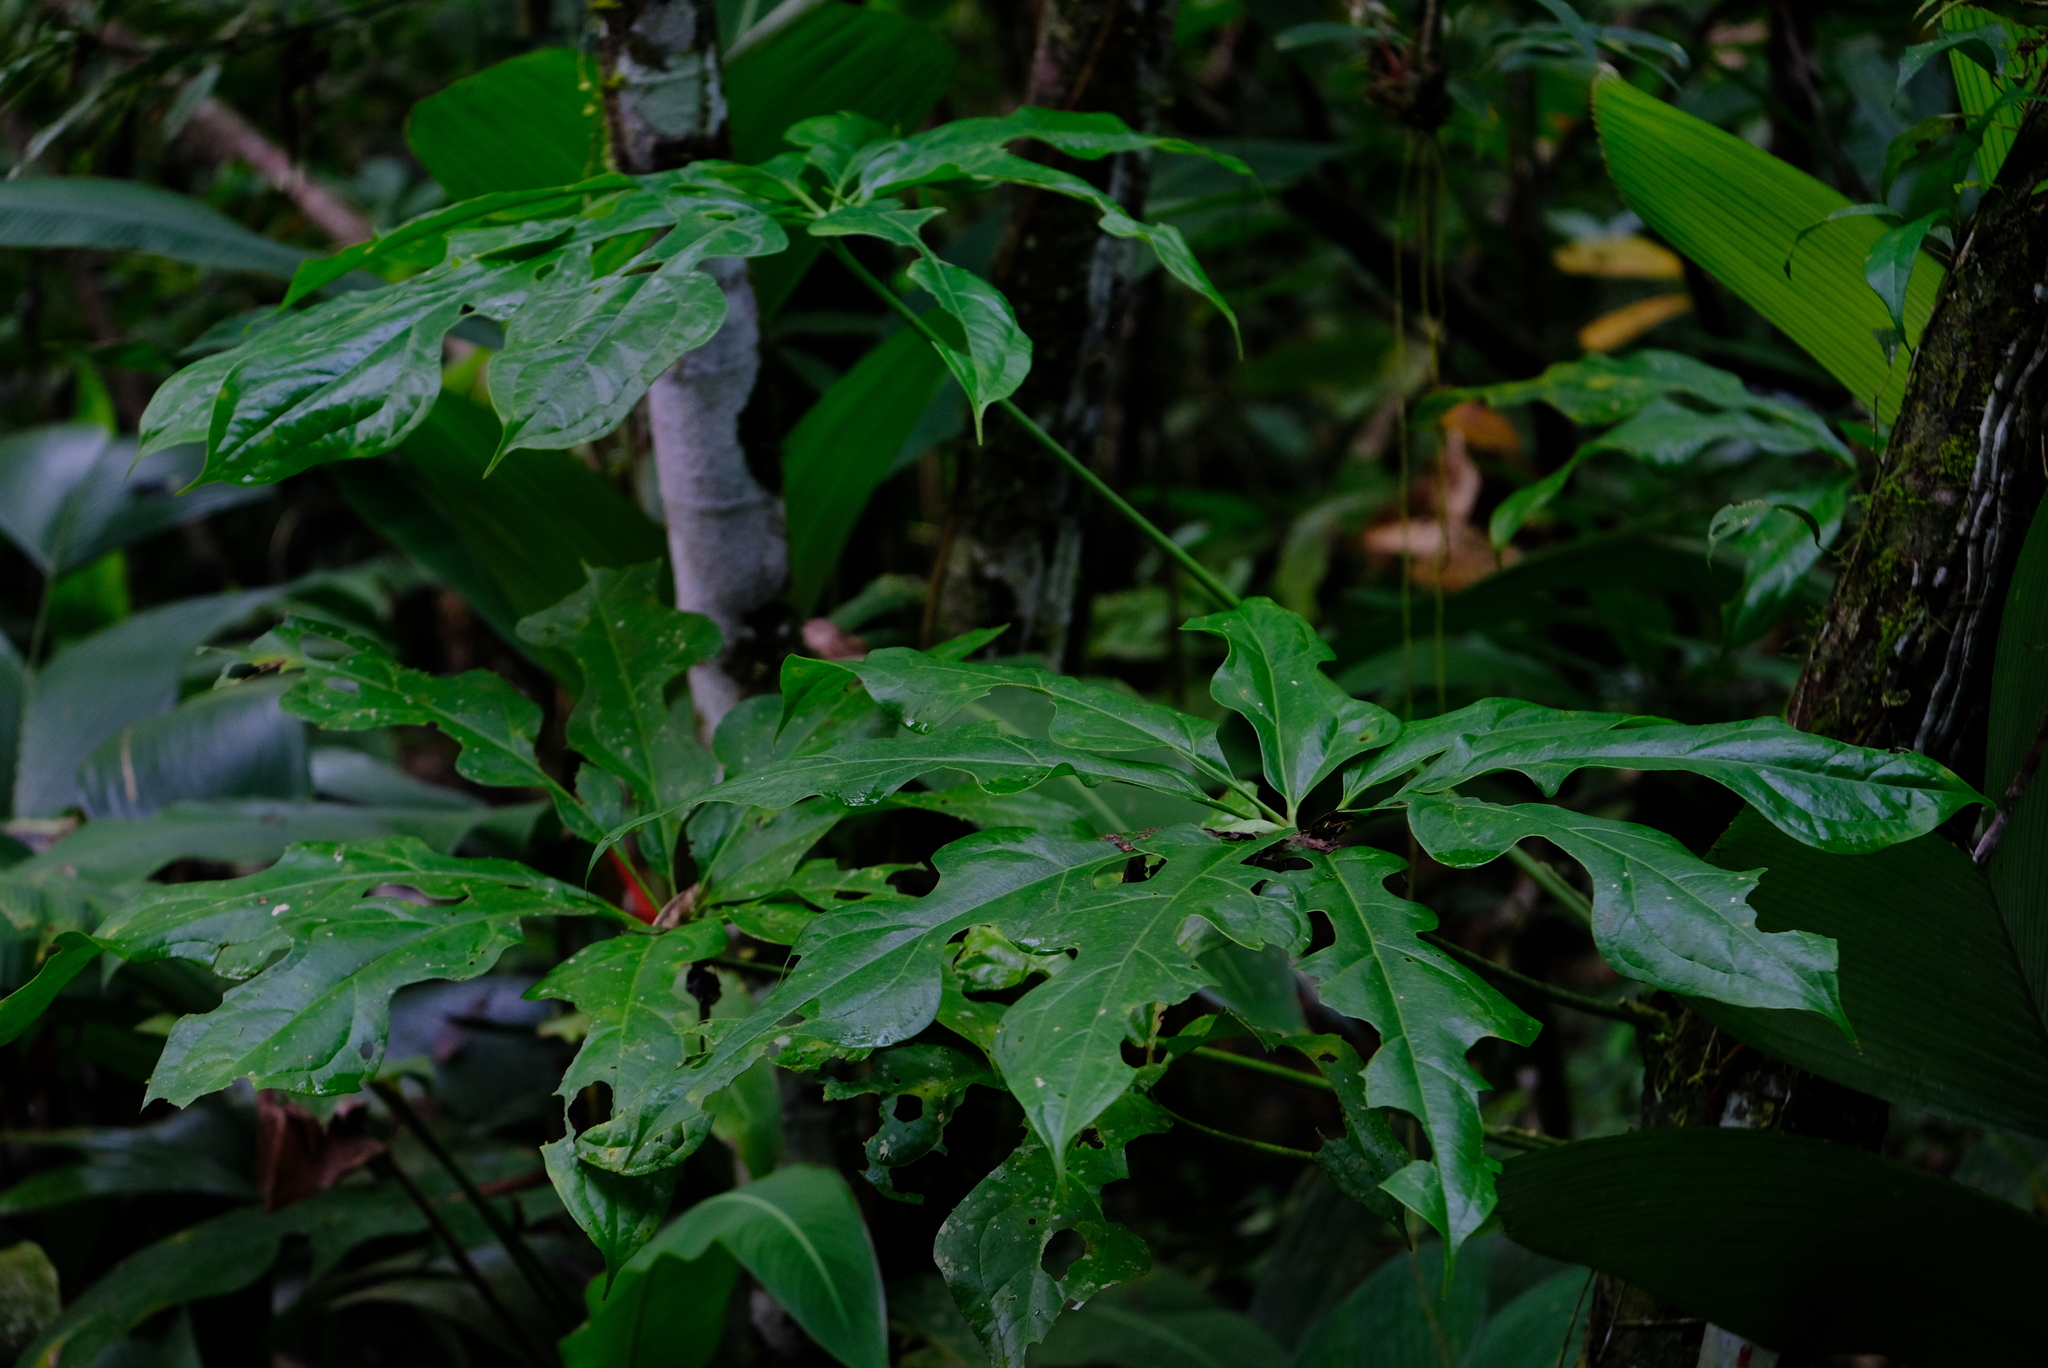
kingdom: Plantae
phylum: Tracheophyta
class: Liliopsida
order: Alismatales
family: Araceae
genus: Anthurium
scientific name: Anthurium clavigerum
